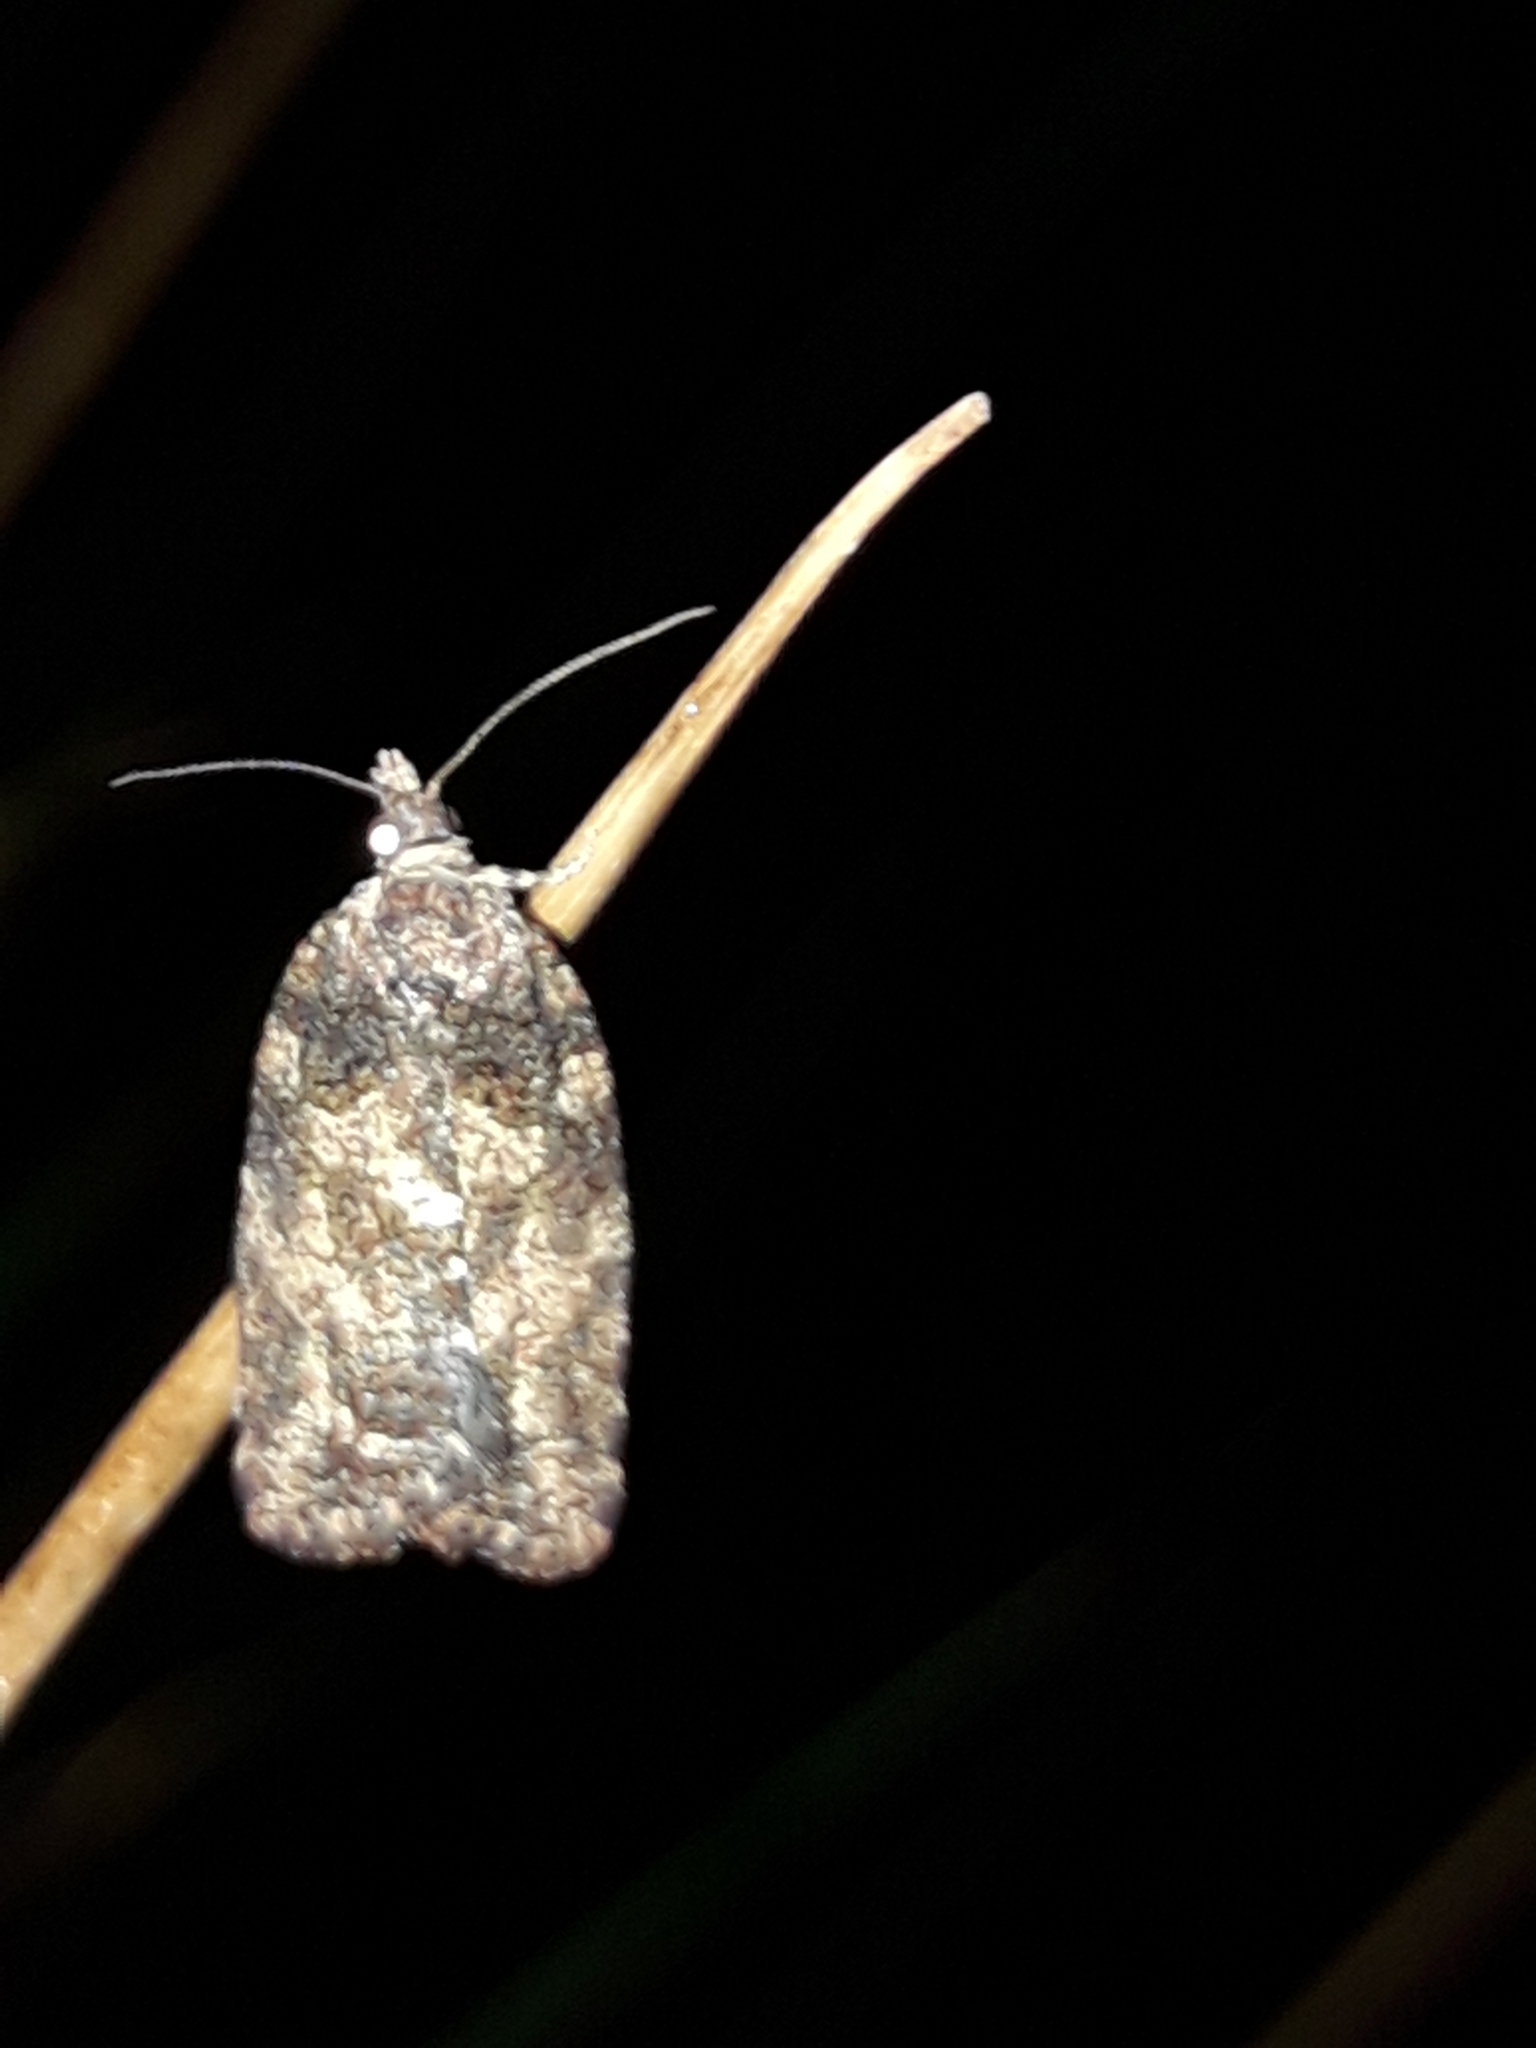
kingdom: Animalia
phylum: Arthropoda
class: Insecta
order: Lepidoptera
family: Tortricidae
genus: Capua
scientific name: Capua intractana
